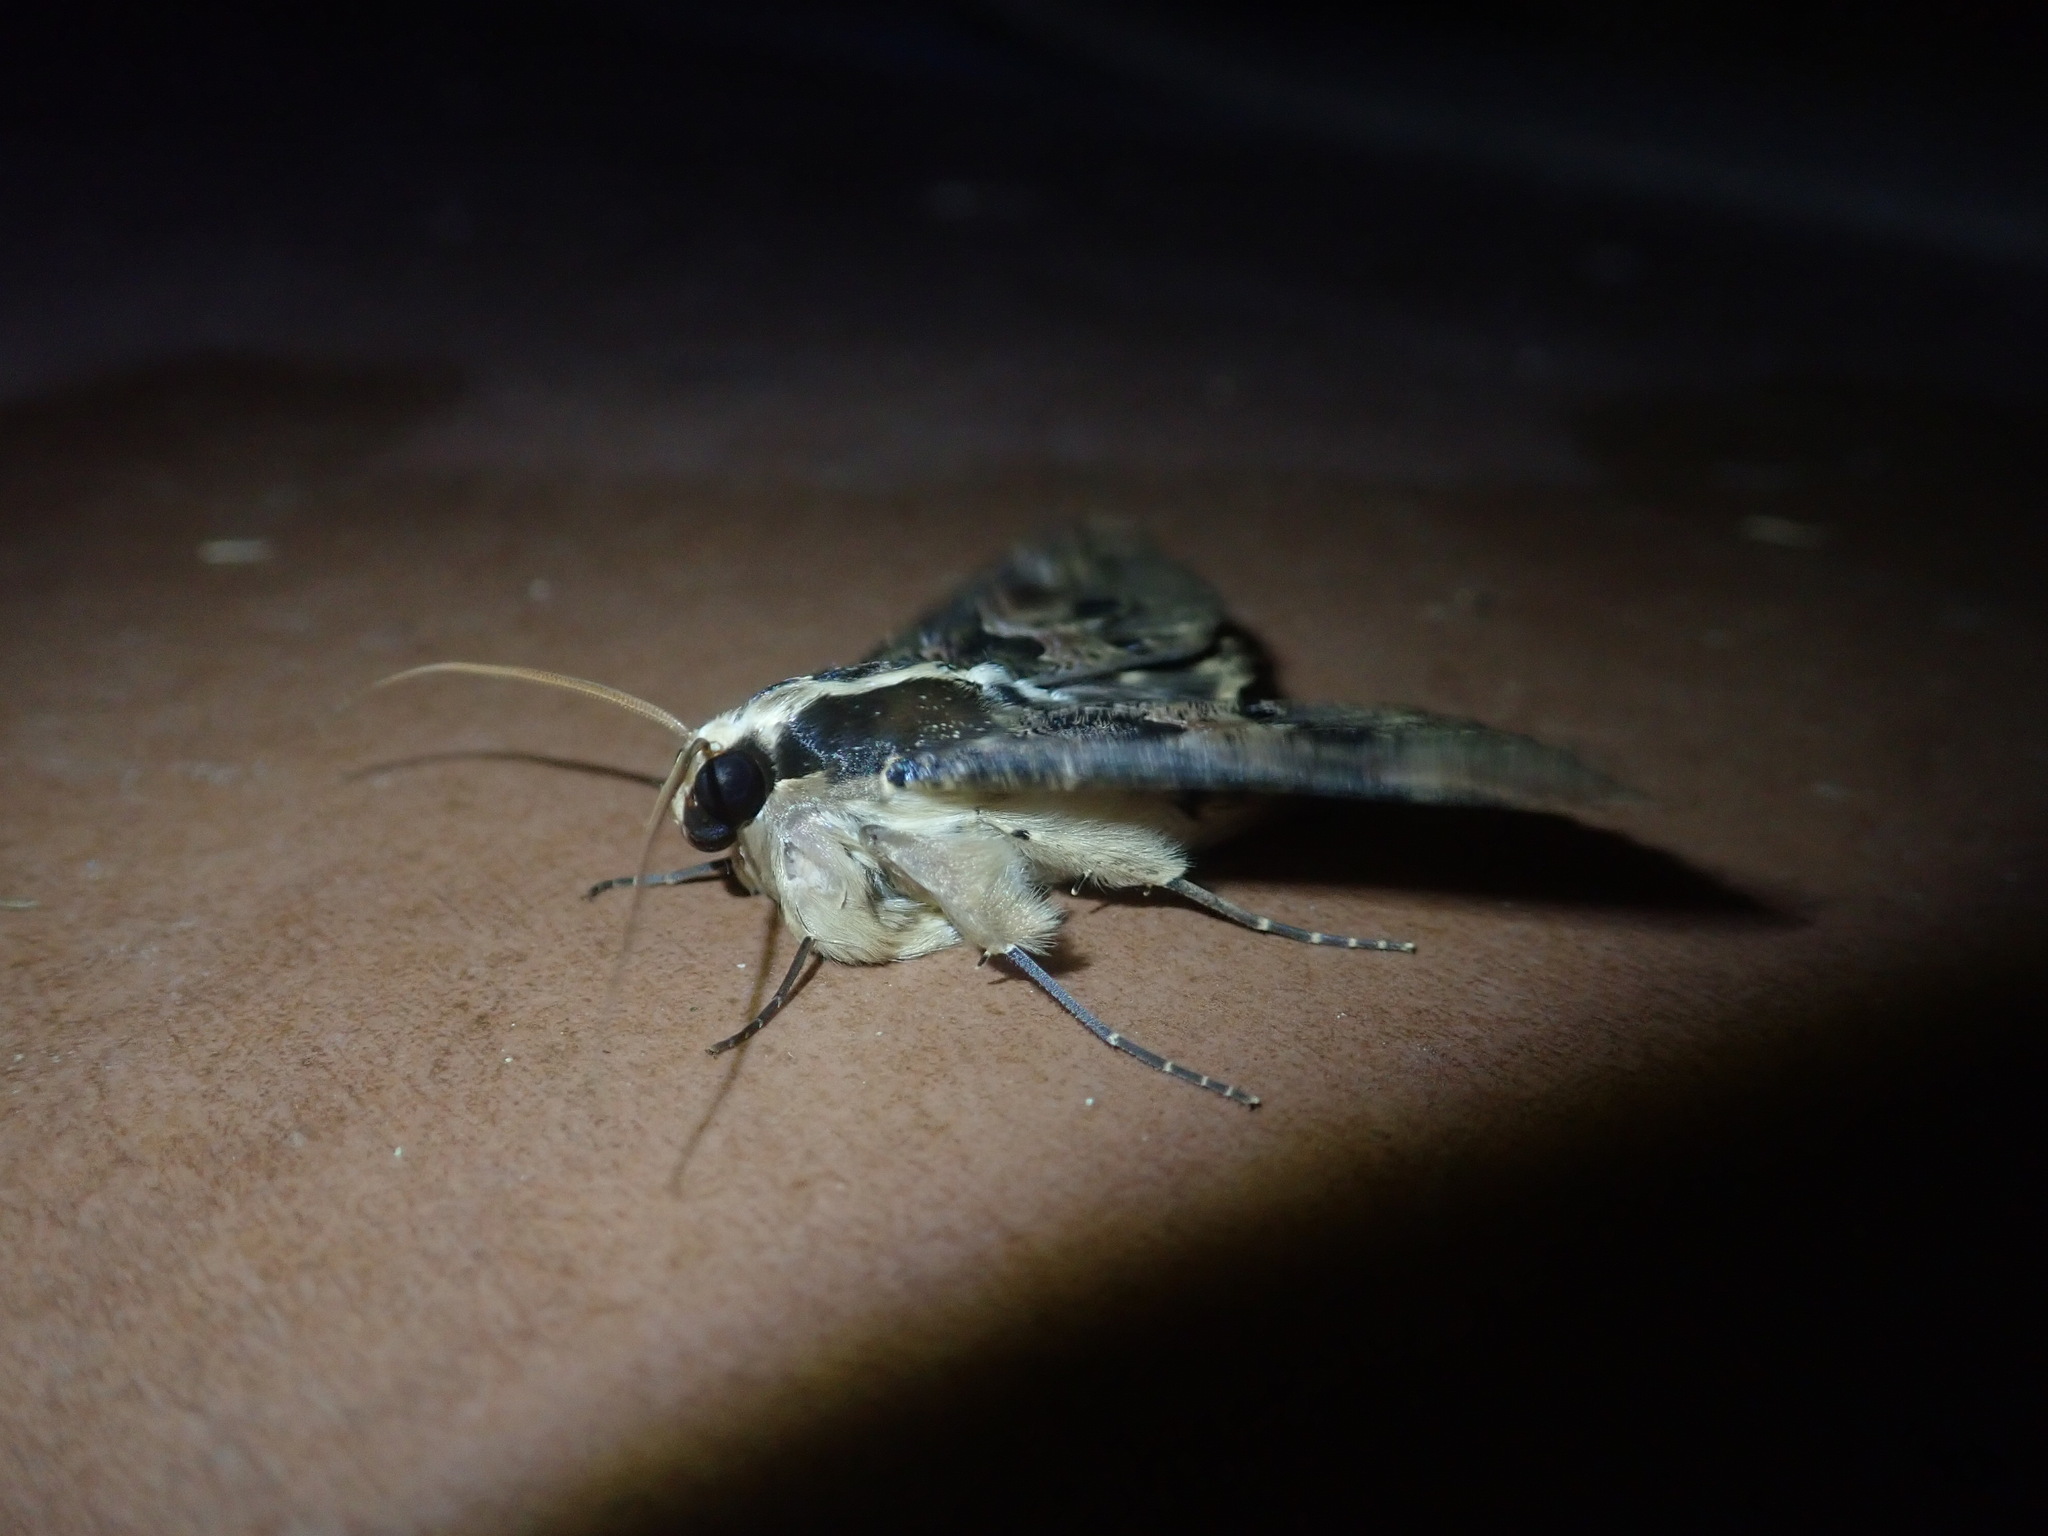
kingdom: Animalia
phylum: Arthropoda
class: Insecta
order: Lepidoptera
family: Erebidae
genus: Sphingomorpha
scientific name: Sphingomorpha chlorea
